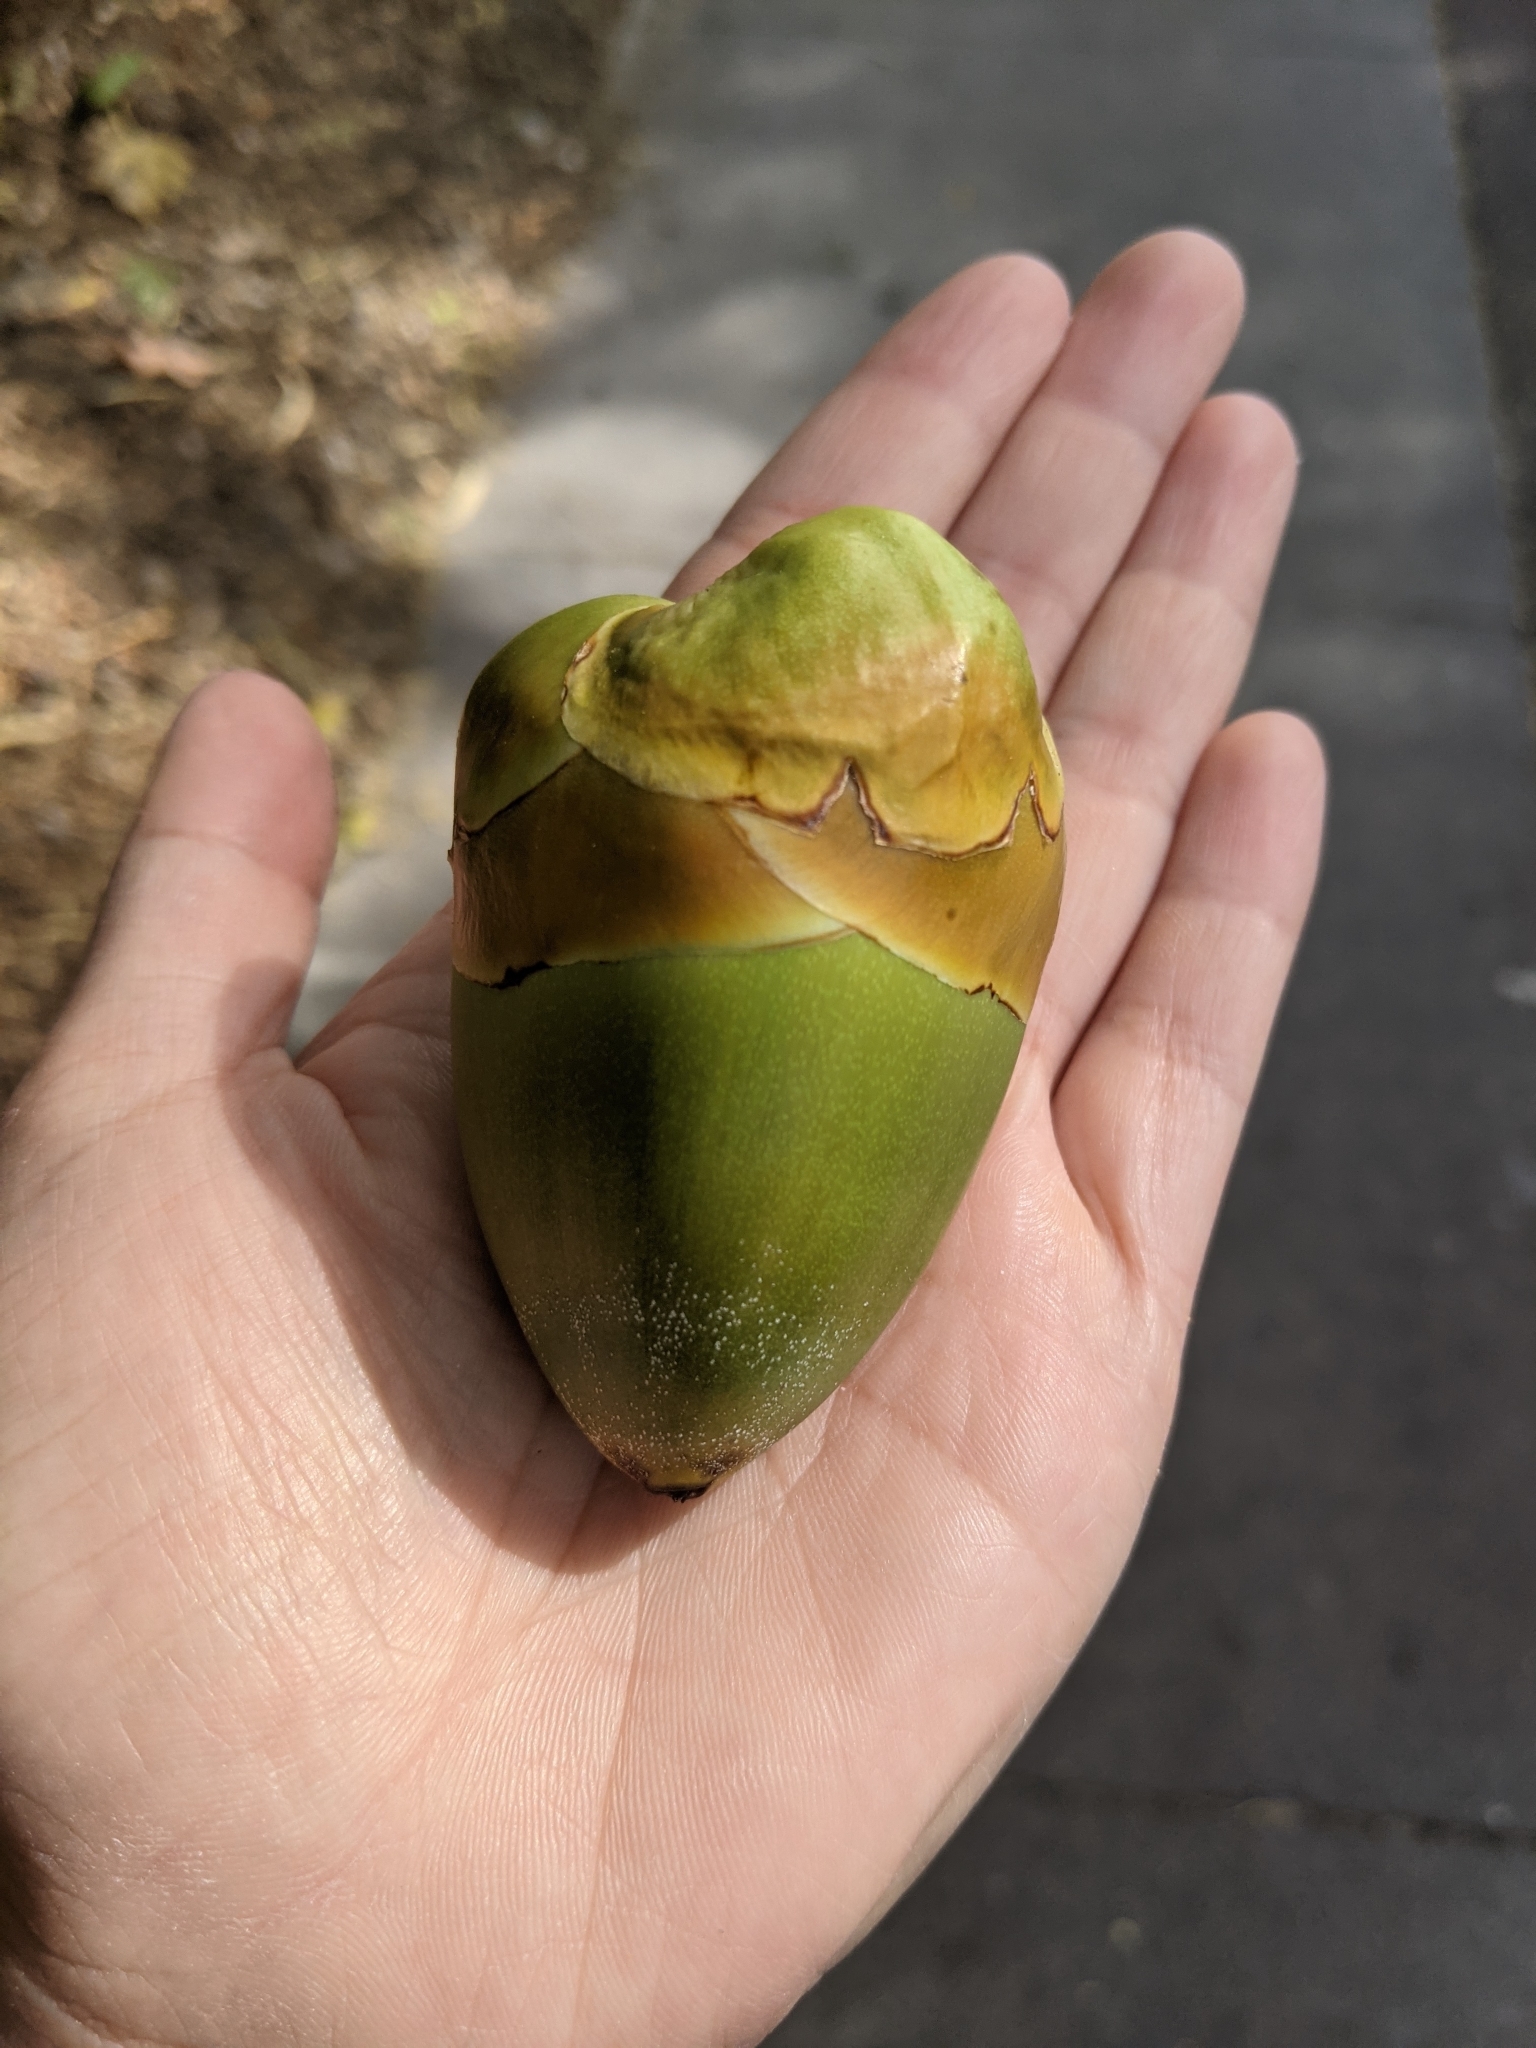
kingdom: Plantae
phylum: Tracheophyta
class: Liliopsida
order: Arecales
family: Arecaceae
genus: Cocos
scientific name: Cocos nucifera
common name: Coconut palm
